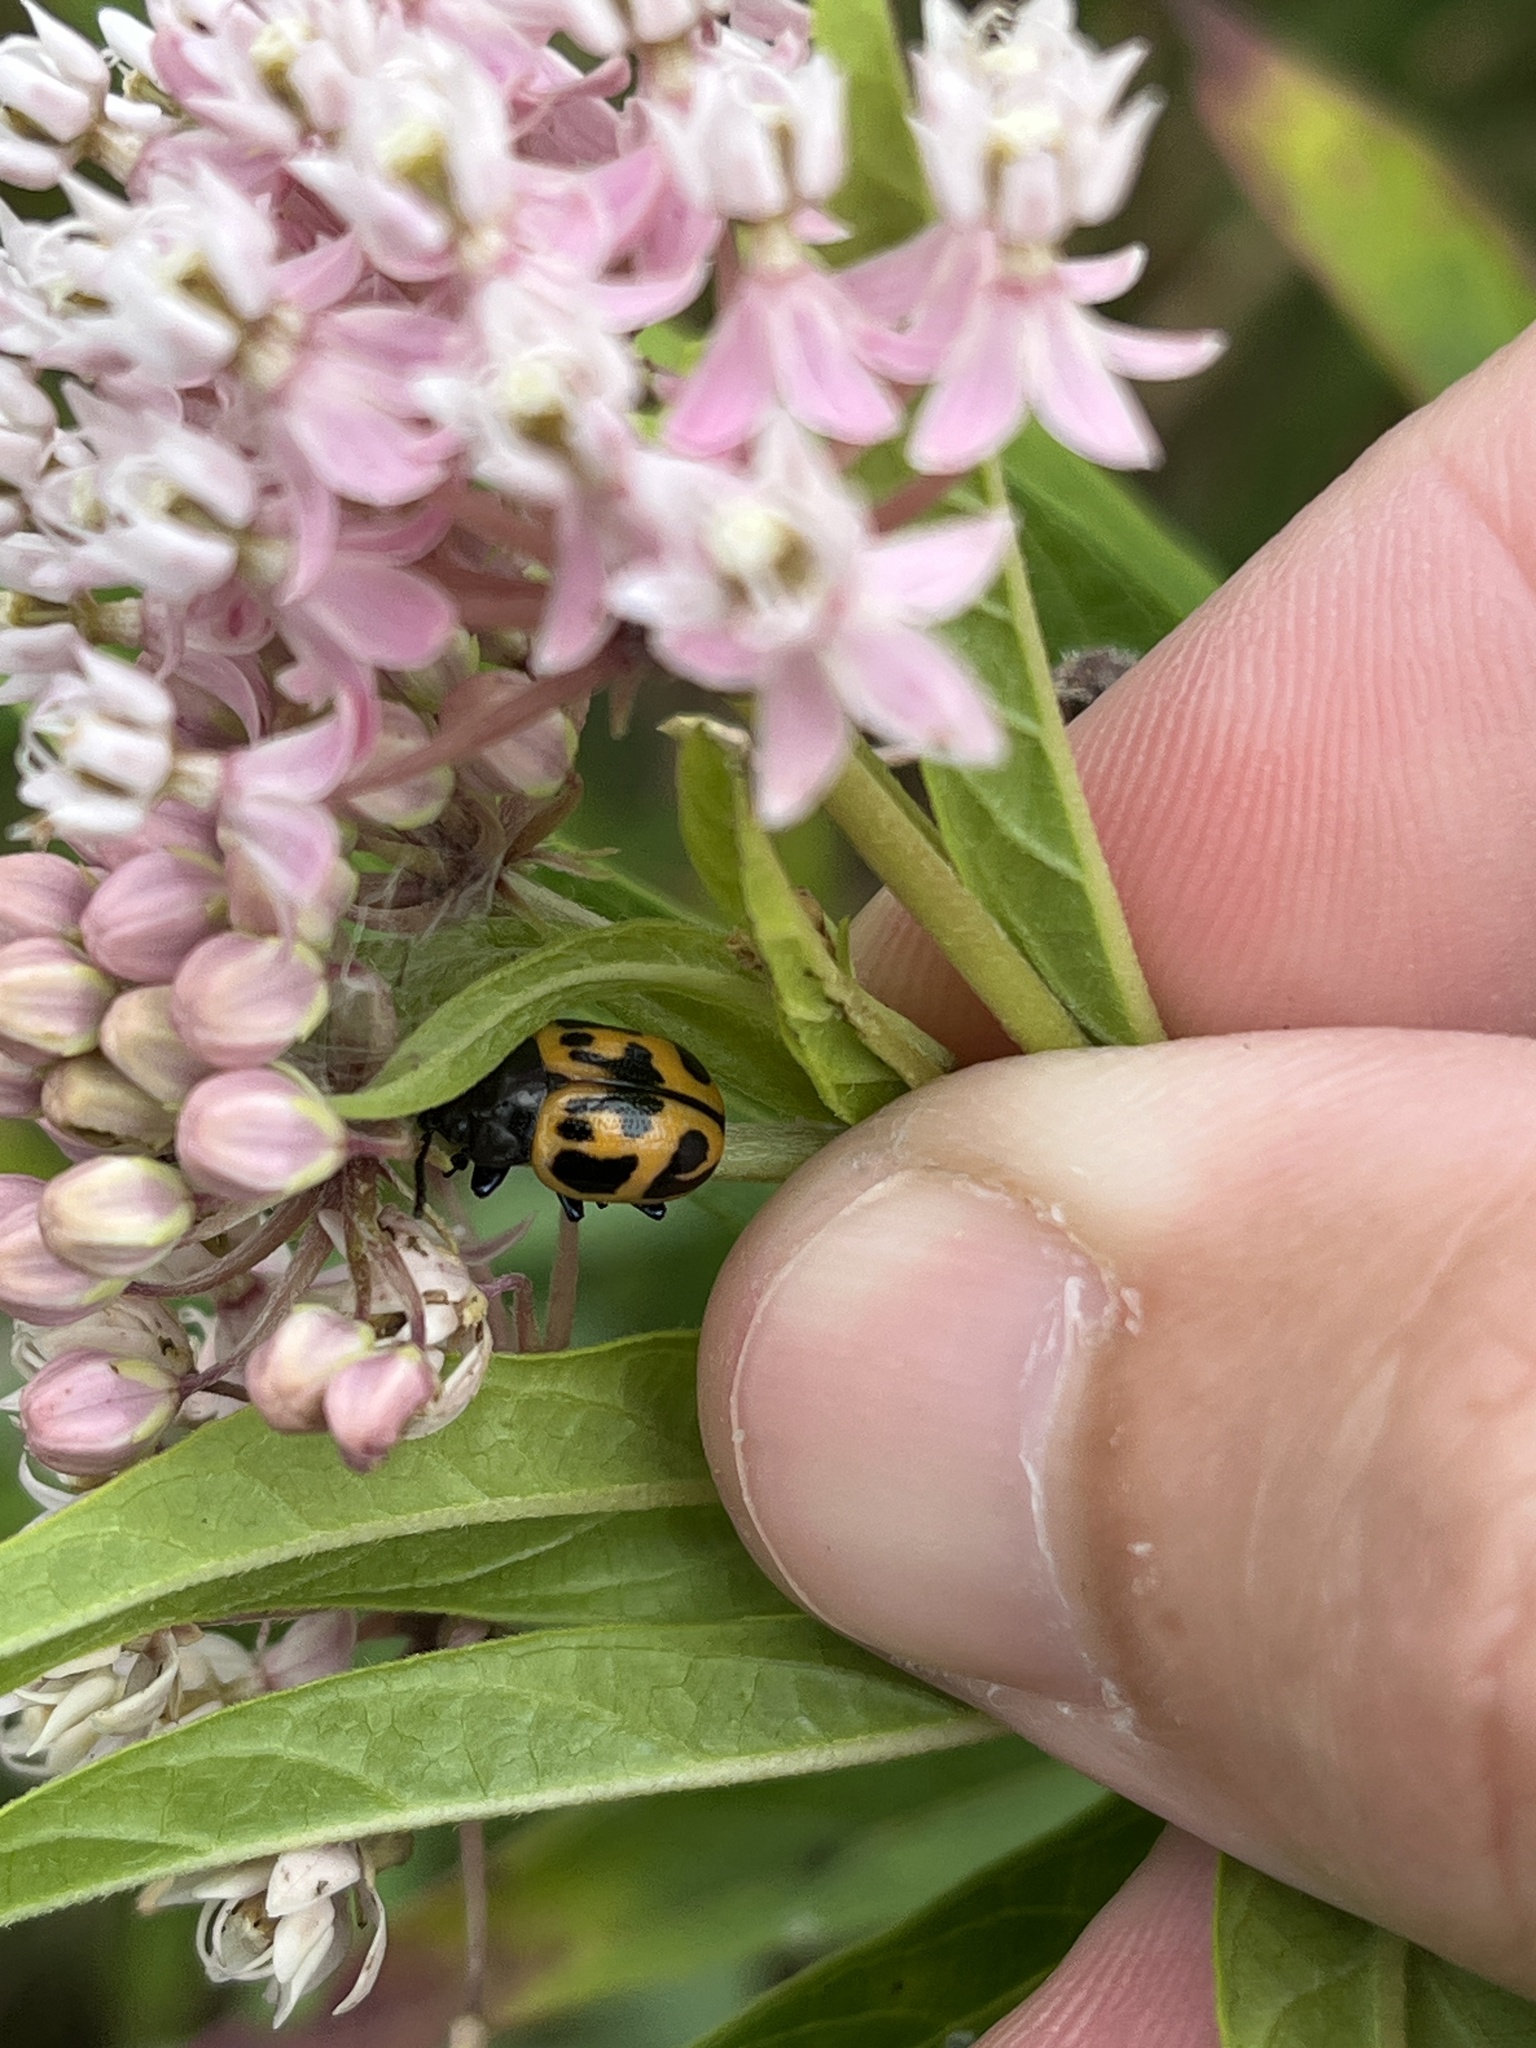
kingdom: Animalia
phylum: Arthropoda
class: Insecta
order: Coleoptera
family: Chrysomelidae
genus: Labidomera
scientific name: Labidomera clivicollis
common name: Swamp milkweed leaf beetle
